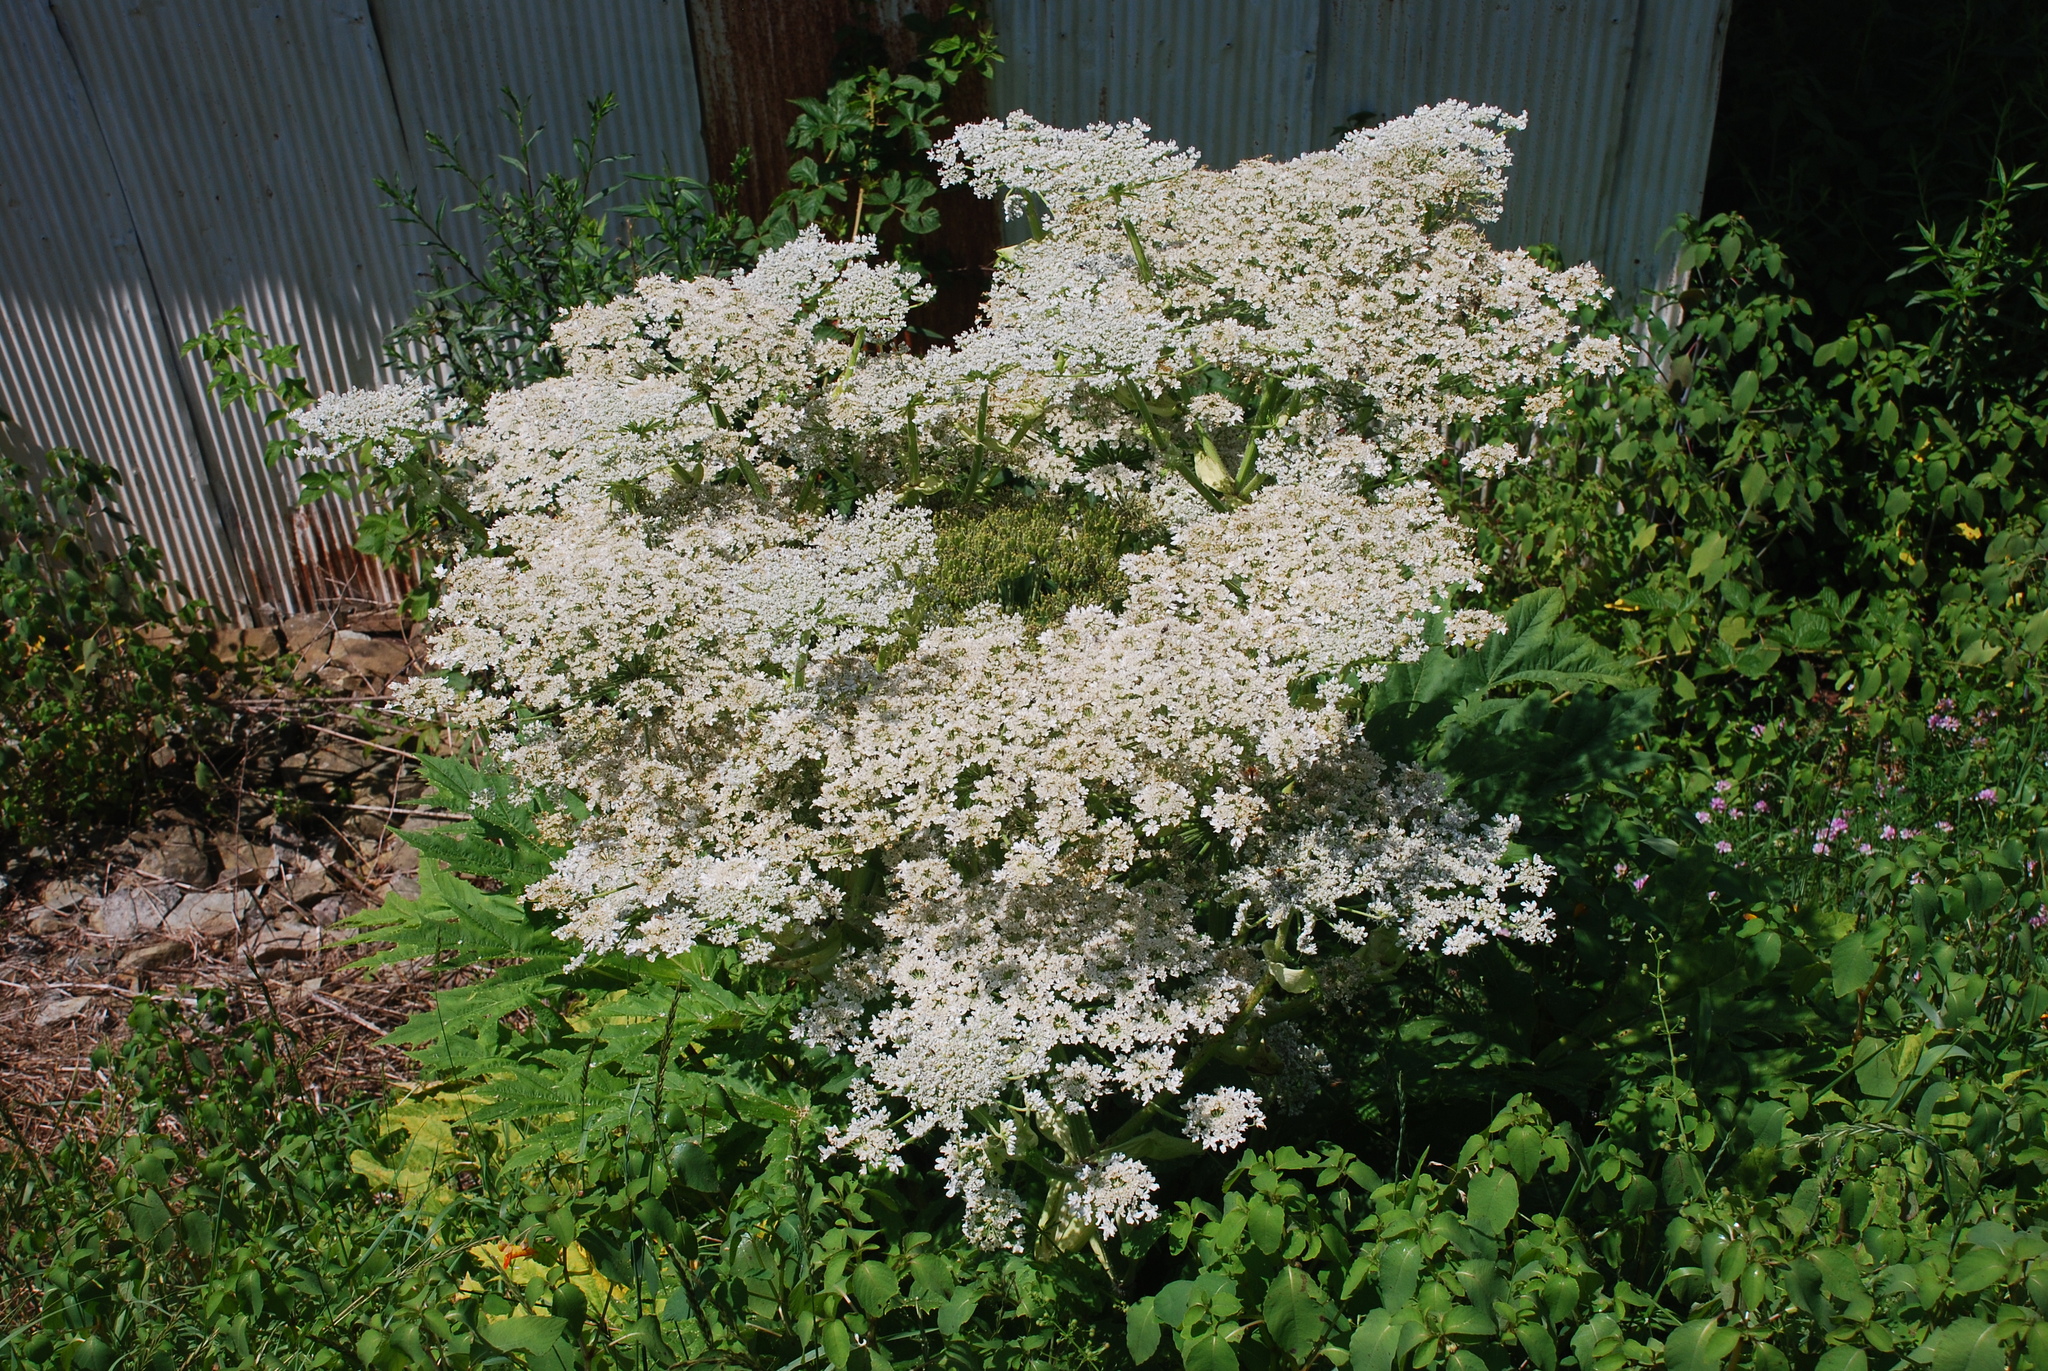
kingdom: Plantae
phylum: Tracheophyta
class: Magnoliopsida
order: Apiales
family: Apiaceae
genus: Heracleum
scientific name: Heracleum mantegazzianum
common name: Giant hogweed
